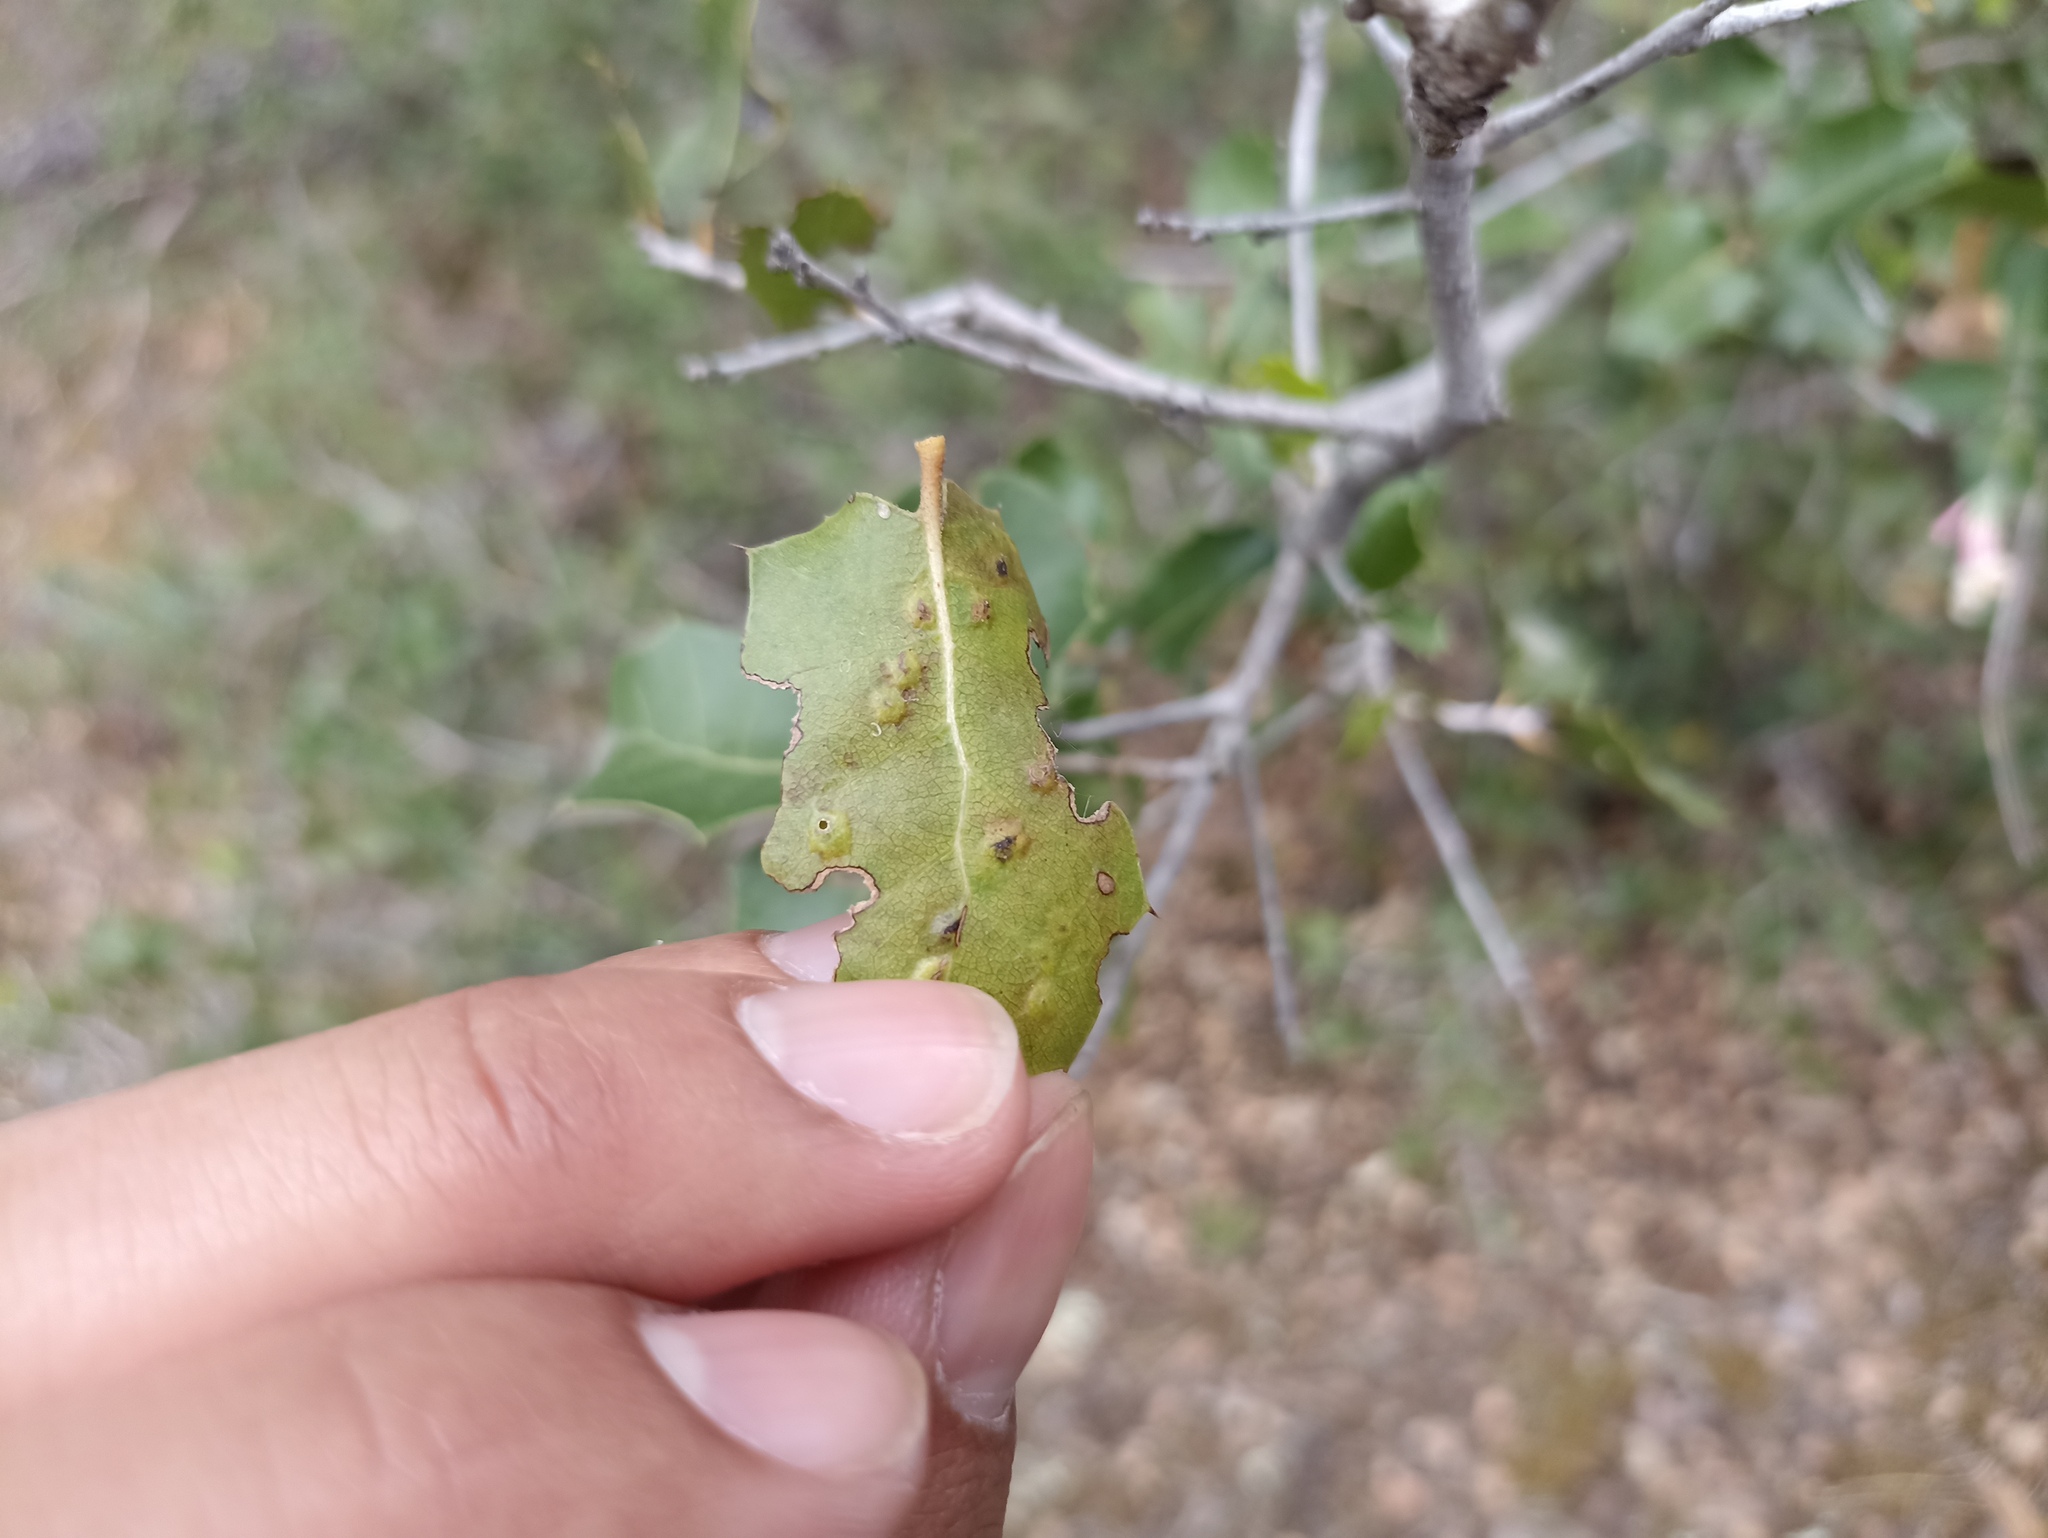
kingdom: Animalia
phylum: Arthropoda
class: Insecta
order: Hymenoptera
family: Cynipidae
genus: Plagiotrochus
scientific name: Plagiotrochus coriaceus
